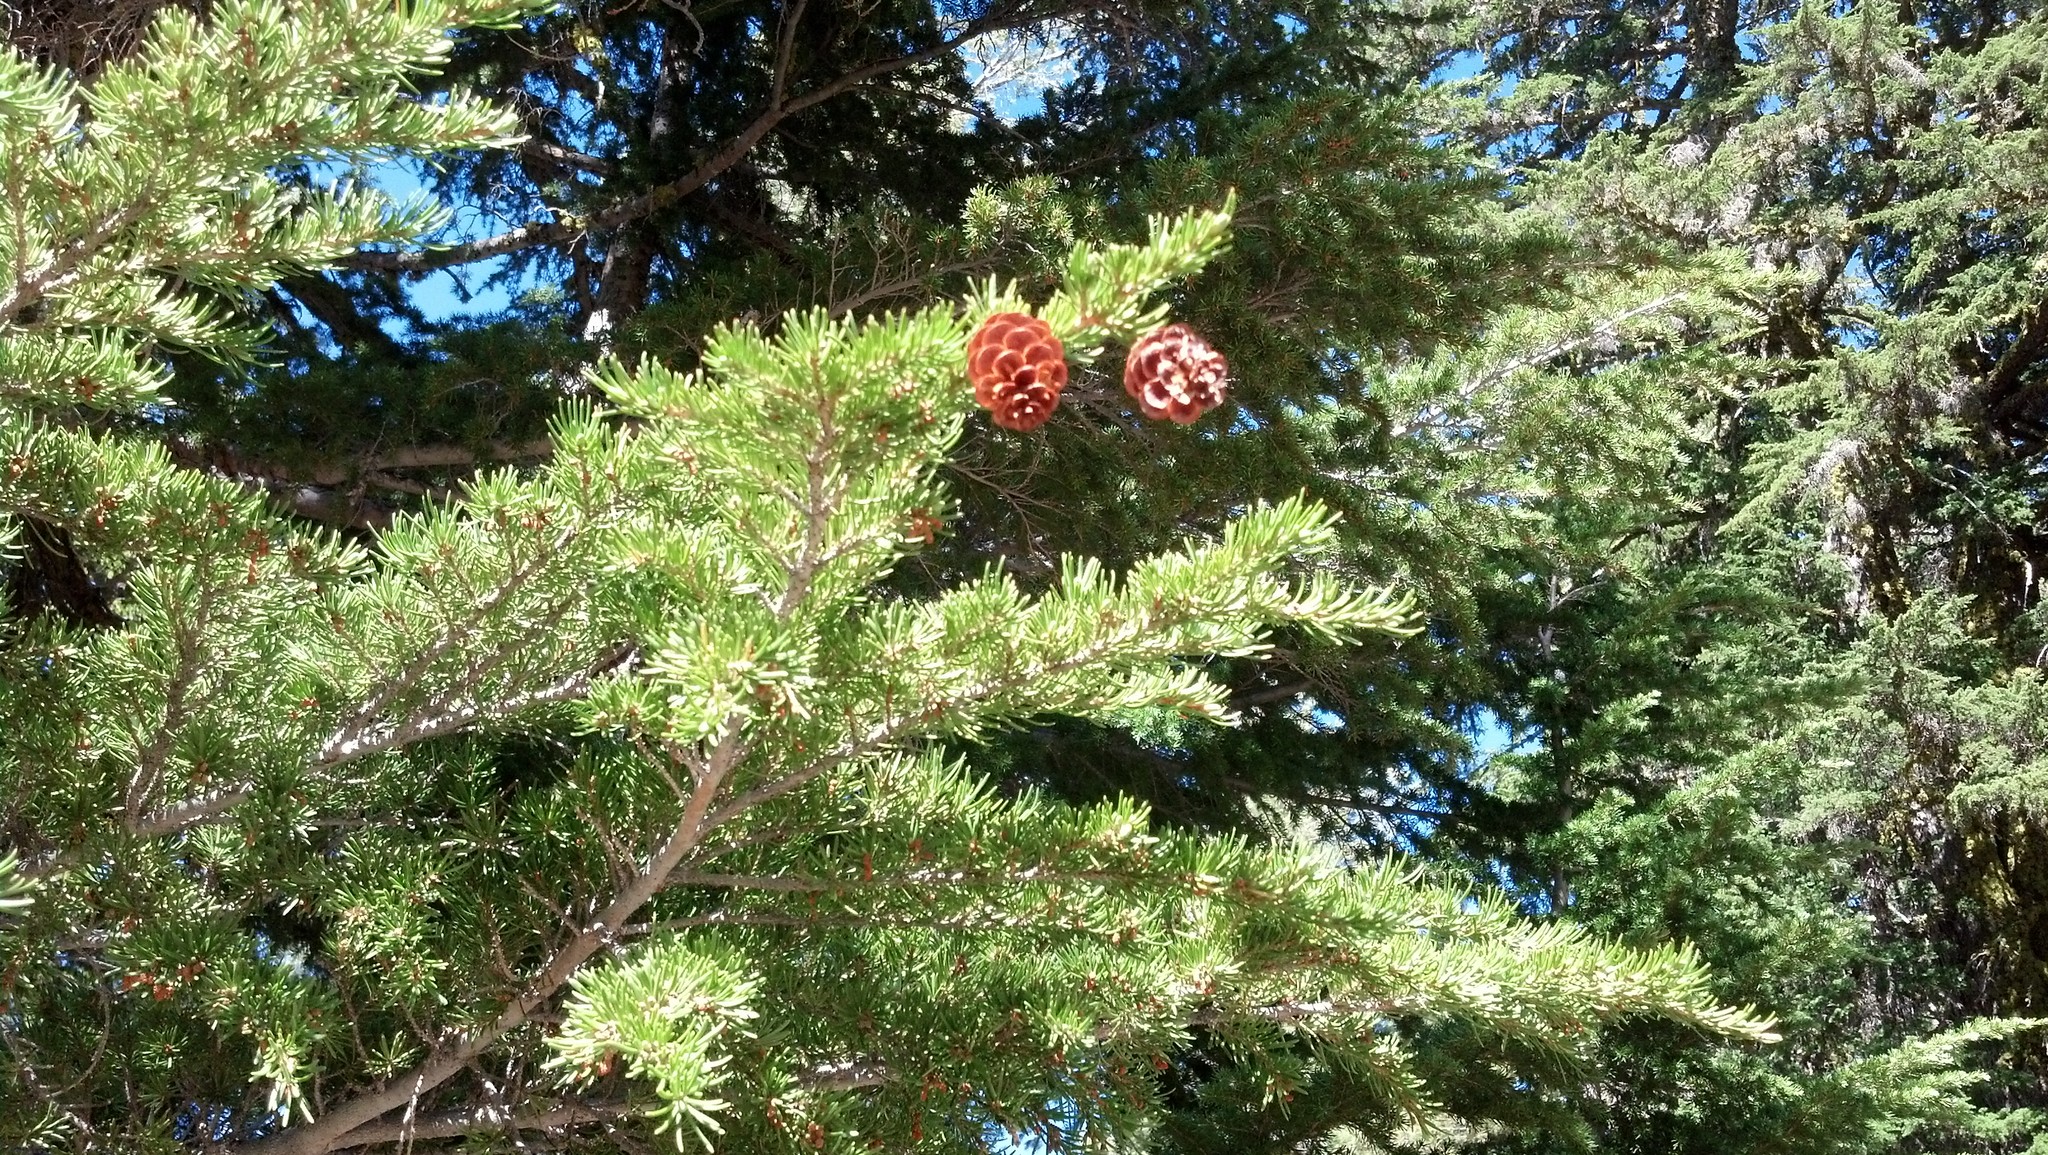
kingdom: Plantae
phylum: Tracheophyta
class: Pinopsida
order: Pinales
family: Pinaceae
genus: Tsuga
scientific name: Tsuga mertensiana
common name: Mountain hemlock
